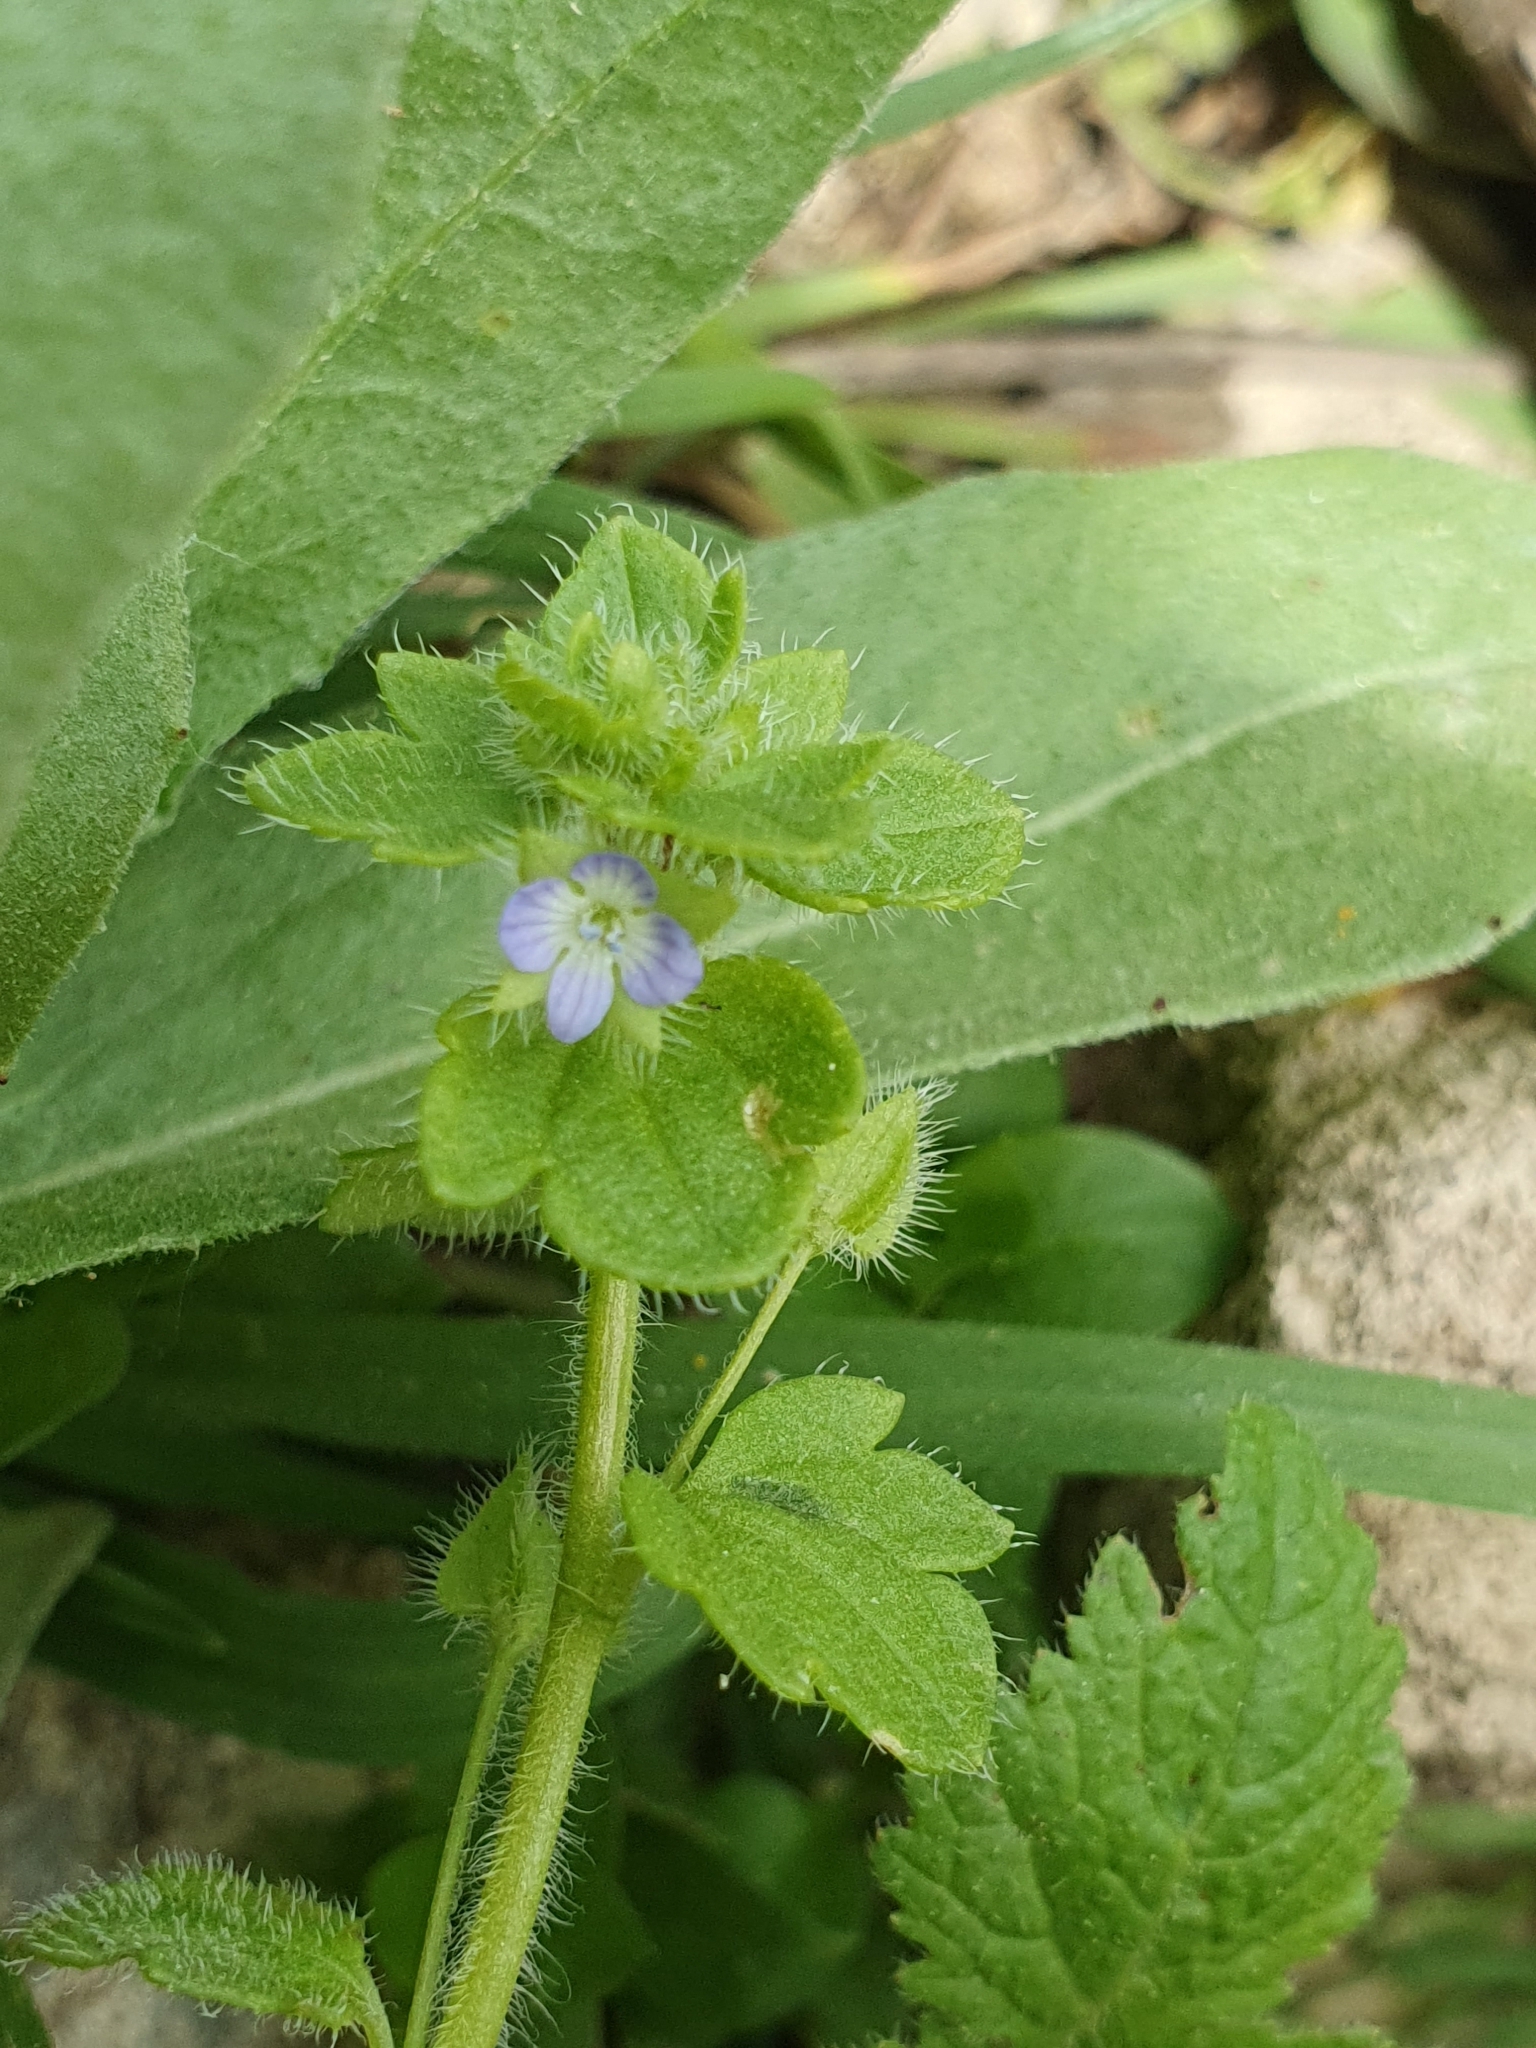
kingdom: Plantae
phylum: Tracheophyta
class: Magnoliopsida
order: Lamiales
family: Plantaginaceae
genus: Veronica
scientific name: Veronica hederifolia
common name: Ivy-leaved speedwell
